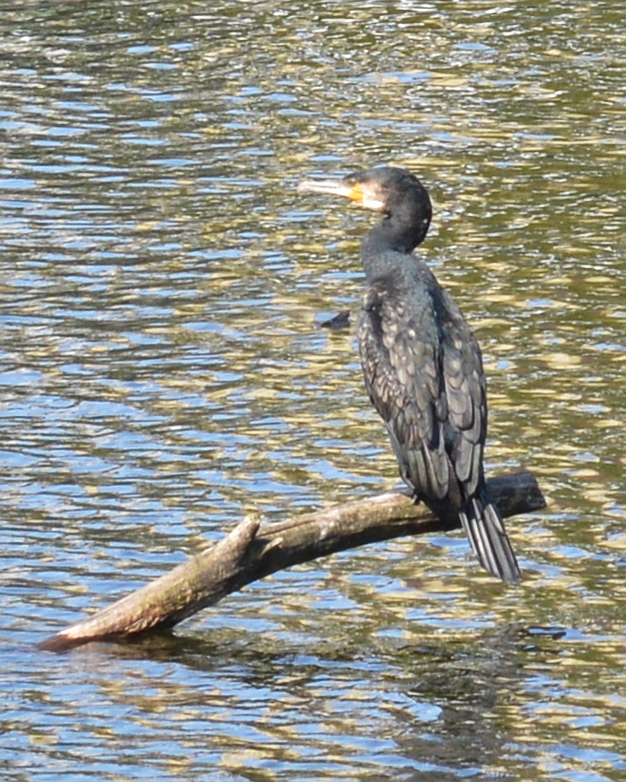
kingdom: Animalia
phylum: Chordata
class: Aves
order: Suliformes
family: Phalacrocoracidae
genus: Phalacrocorax
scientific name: Phalacrocorax carbo
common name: Great cormorant
